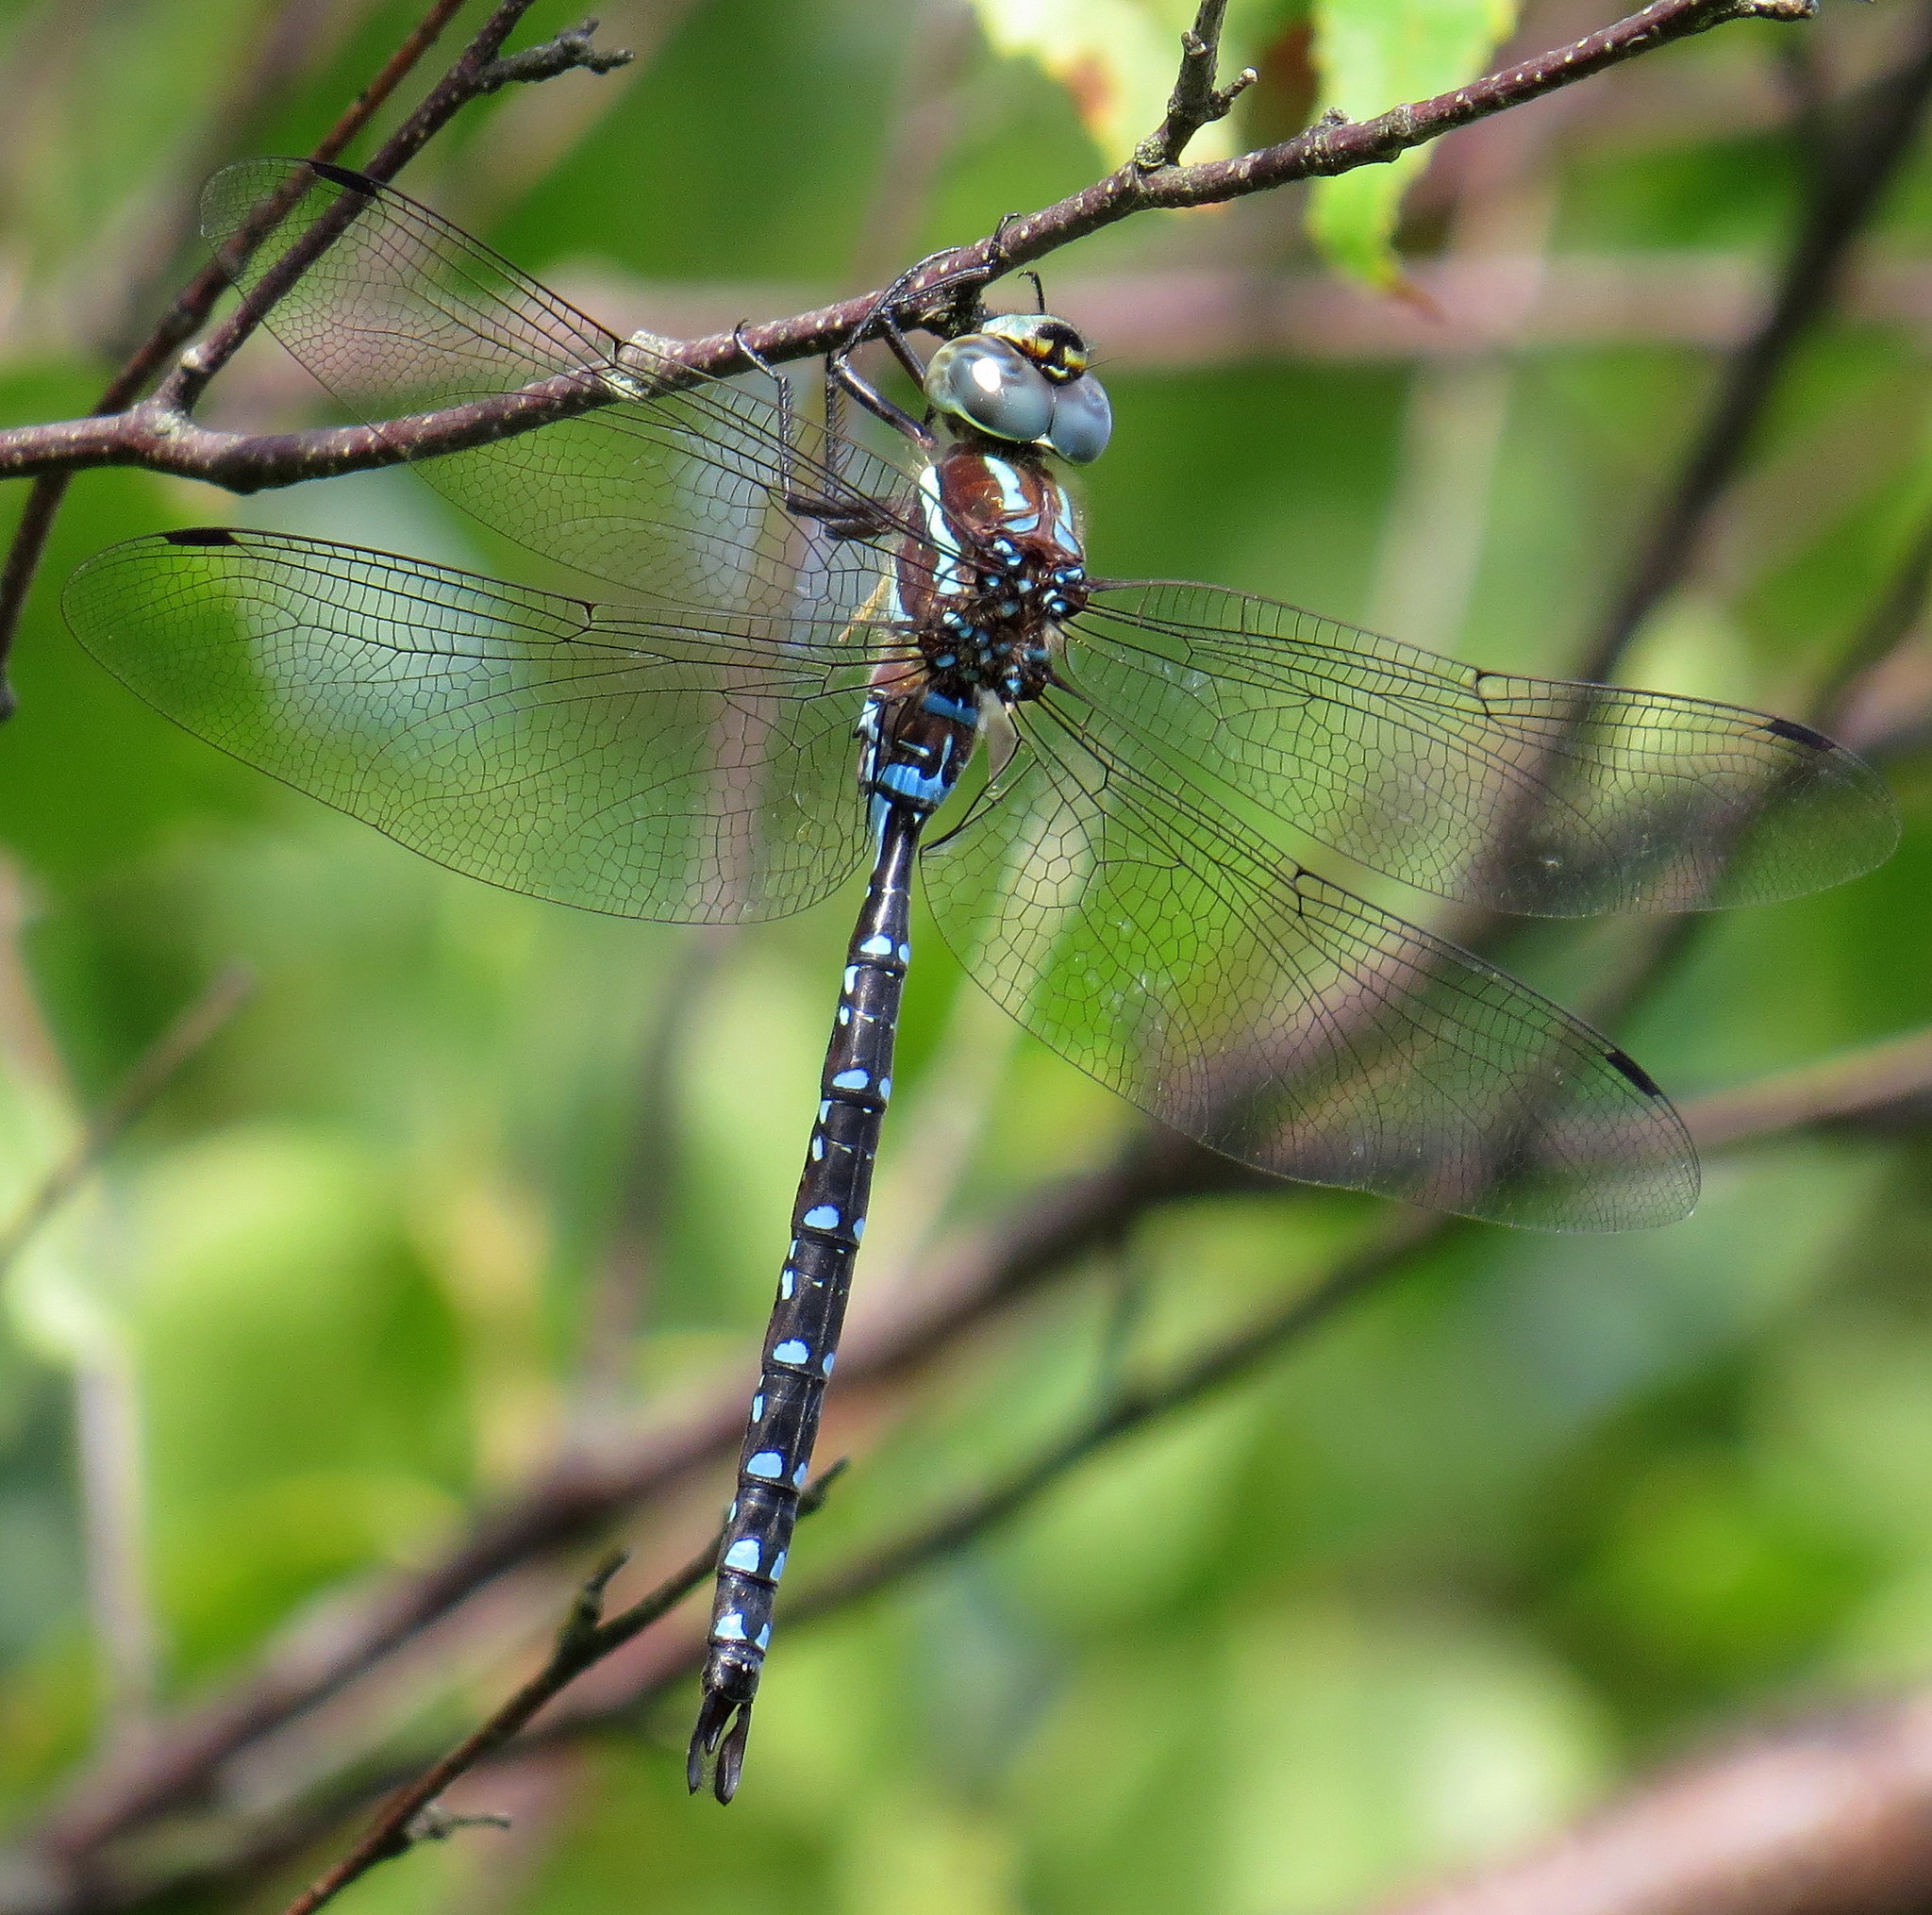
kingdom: Animalia
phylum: Arthropoda
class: Insecta
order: Odonata
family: Aeshnidae
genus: Aeshna
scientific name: Aeshna tuberculifera
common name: Aeschne à tubercules
